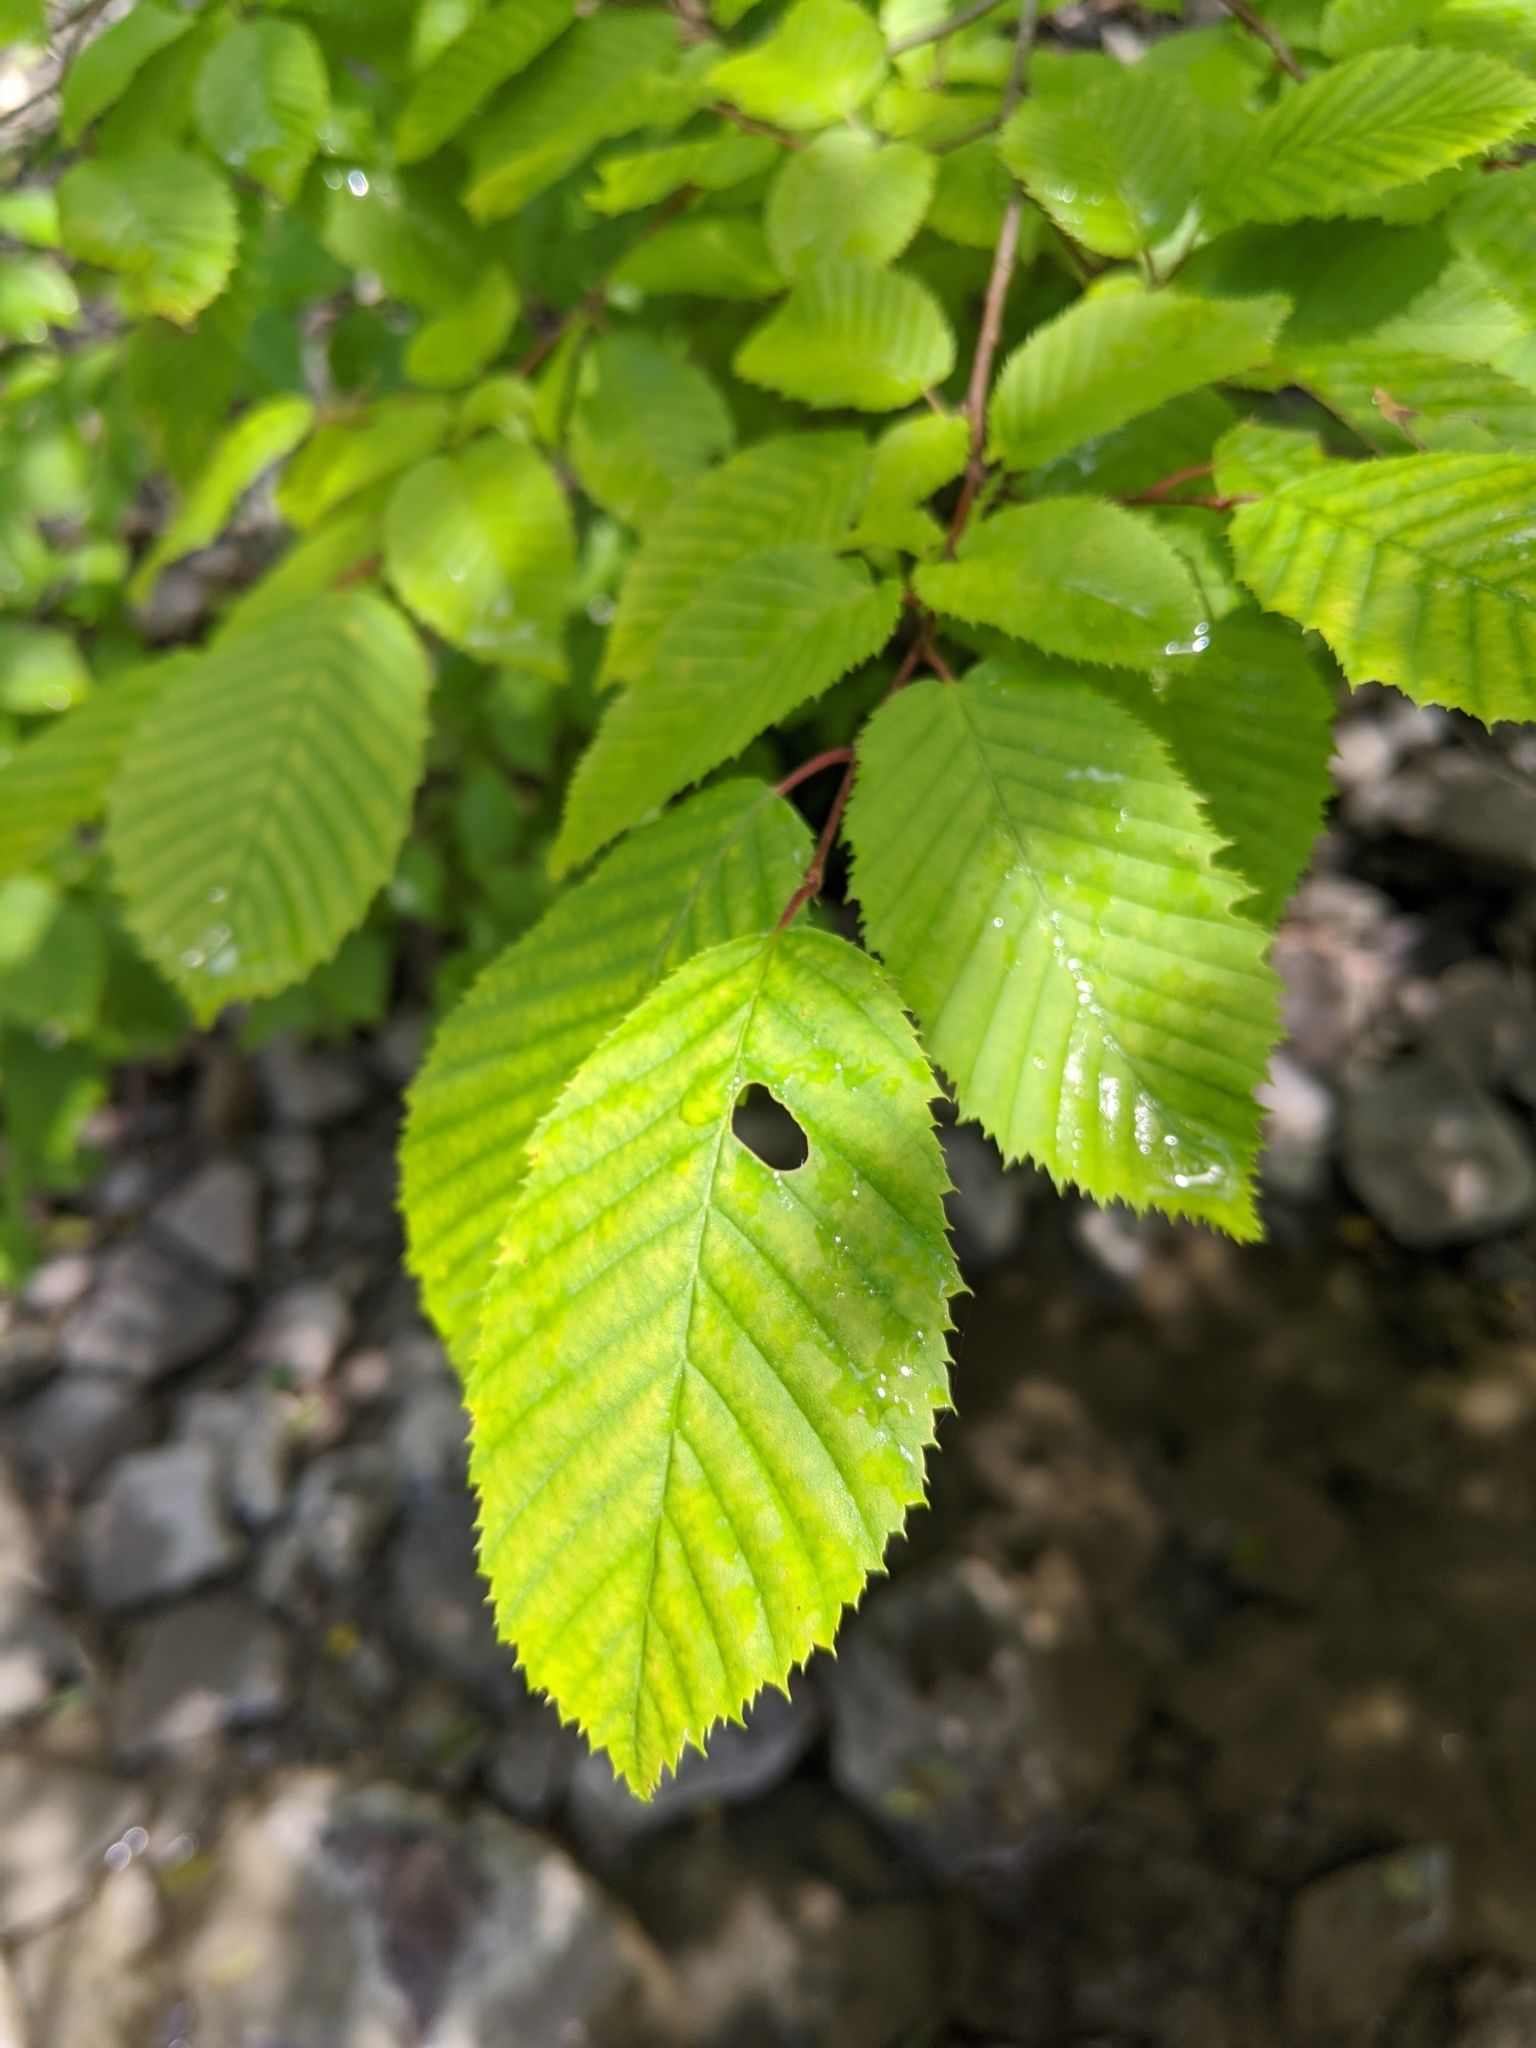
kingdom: Plantae
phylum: Tracheophyta
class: Magnoliopsida
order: Fagales
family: Betulaceae
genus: Carpinus
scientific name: Carpinus caroliniana
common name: American hornbeam
